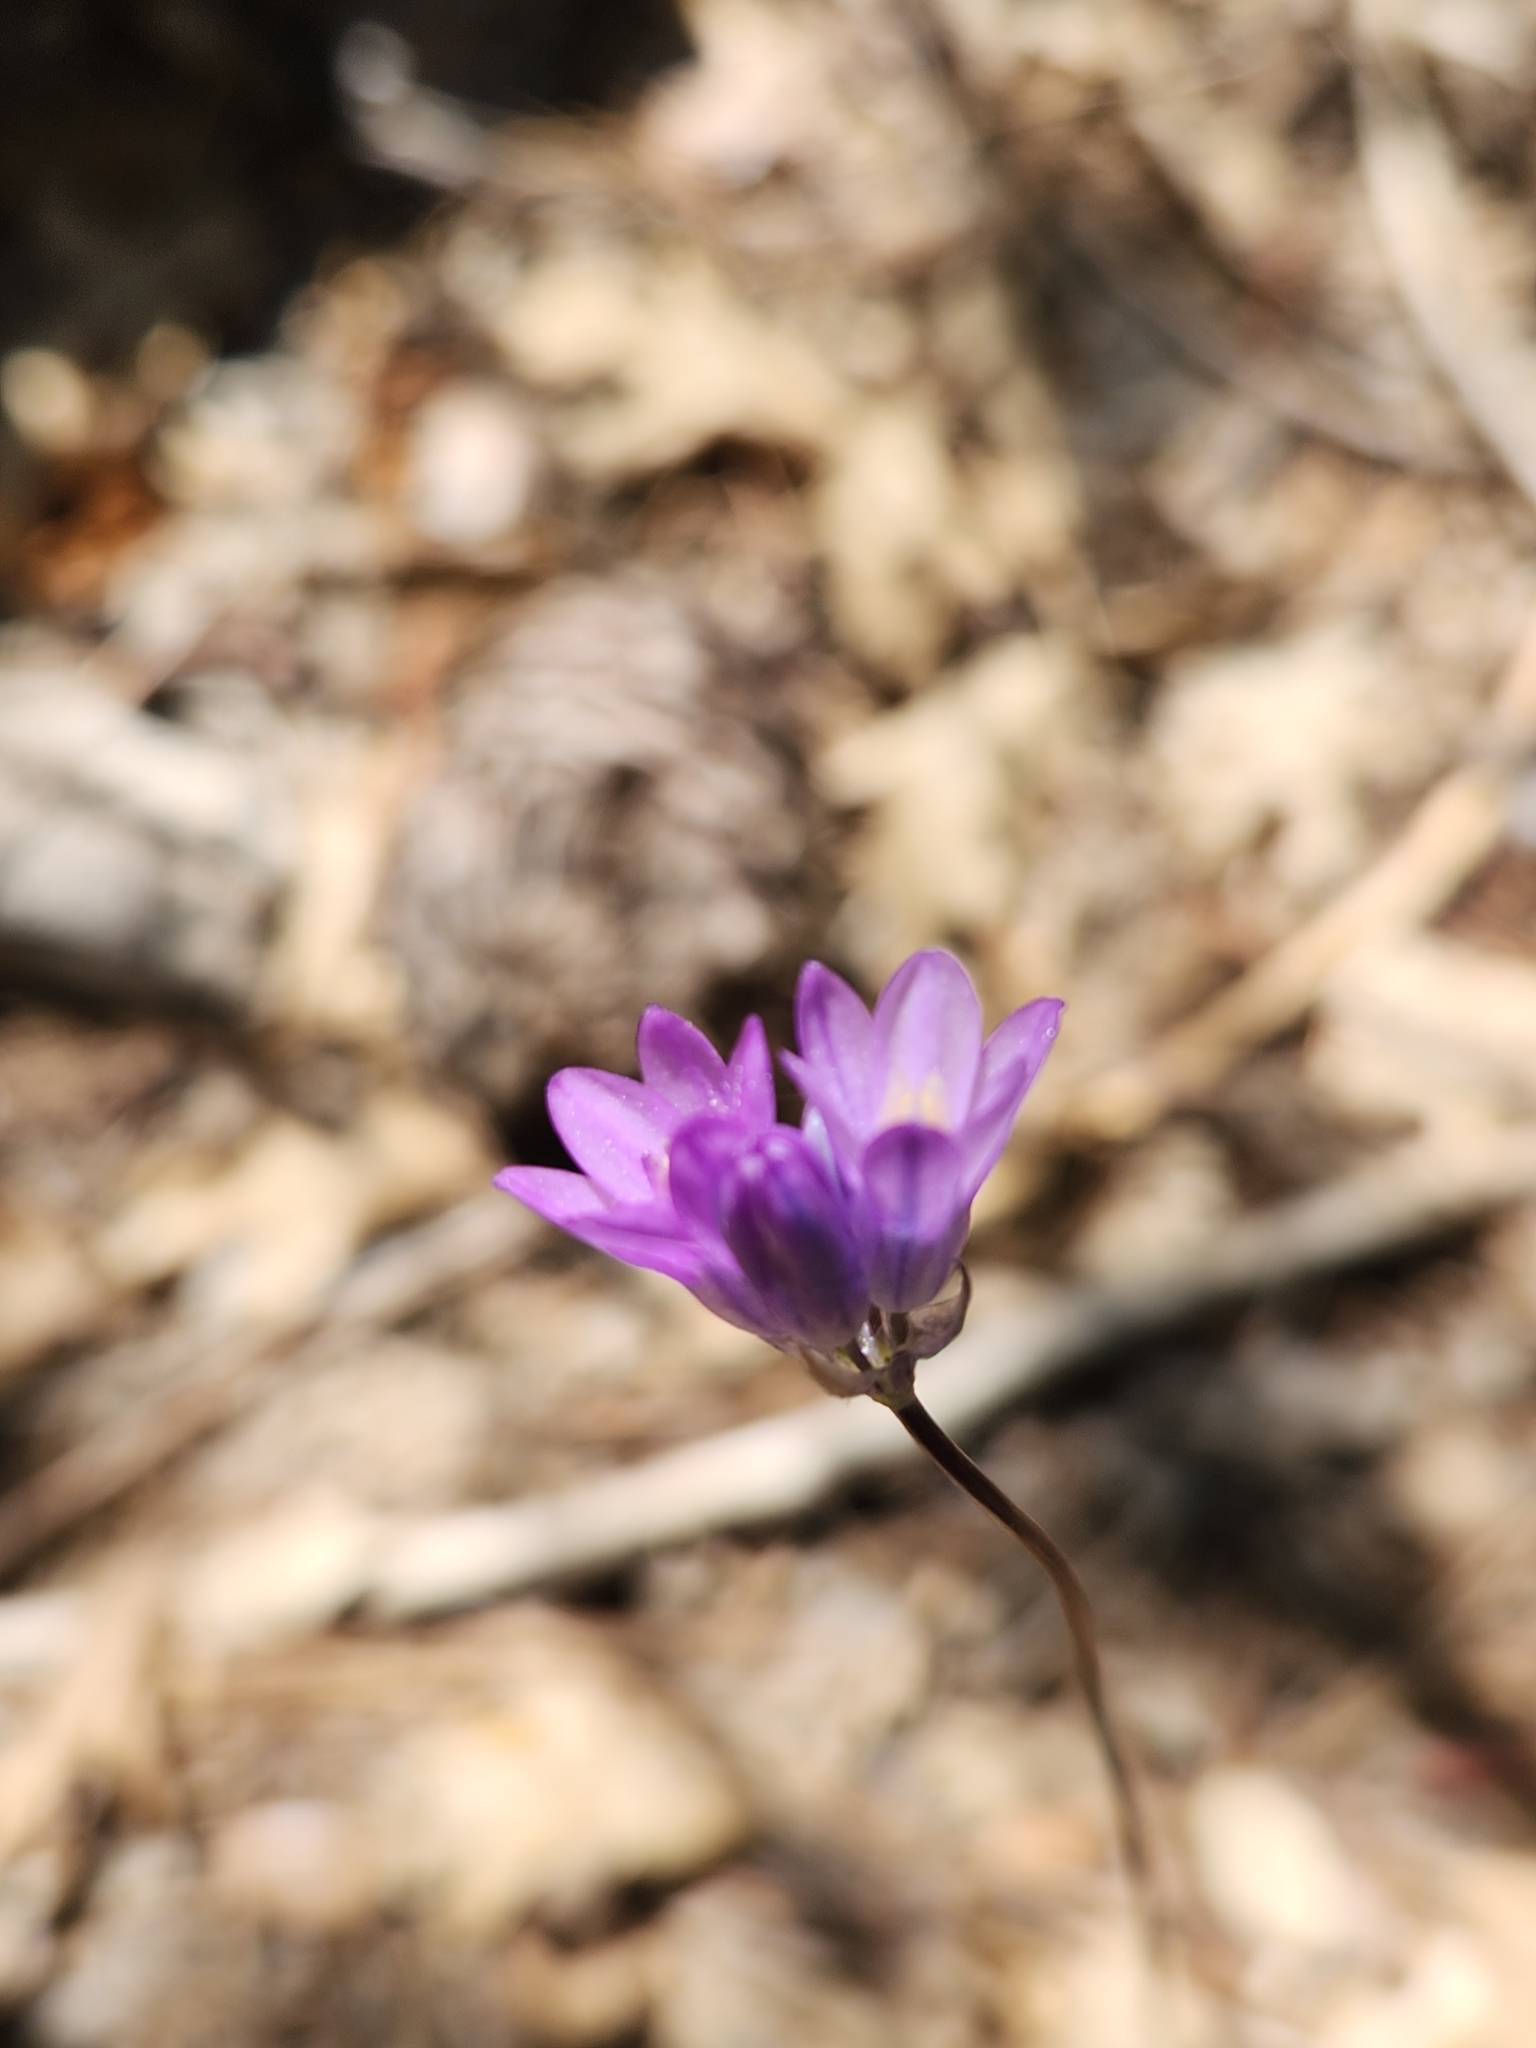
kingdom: Plantae
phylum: Tracheophyta
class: Liliopsida
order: Asparagales
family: Asparagaceae
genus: Dipterostemon
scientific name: Dipterostemon capitatus
